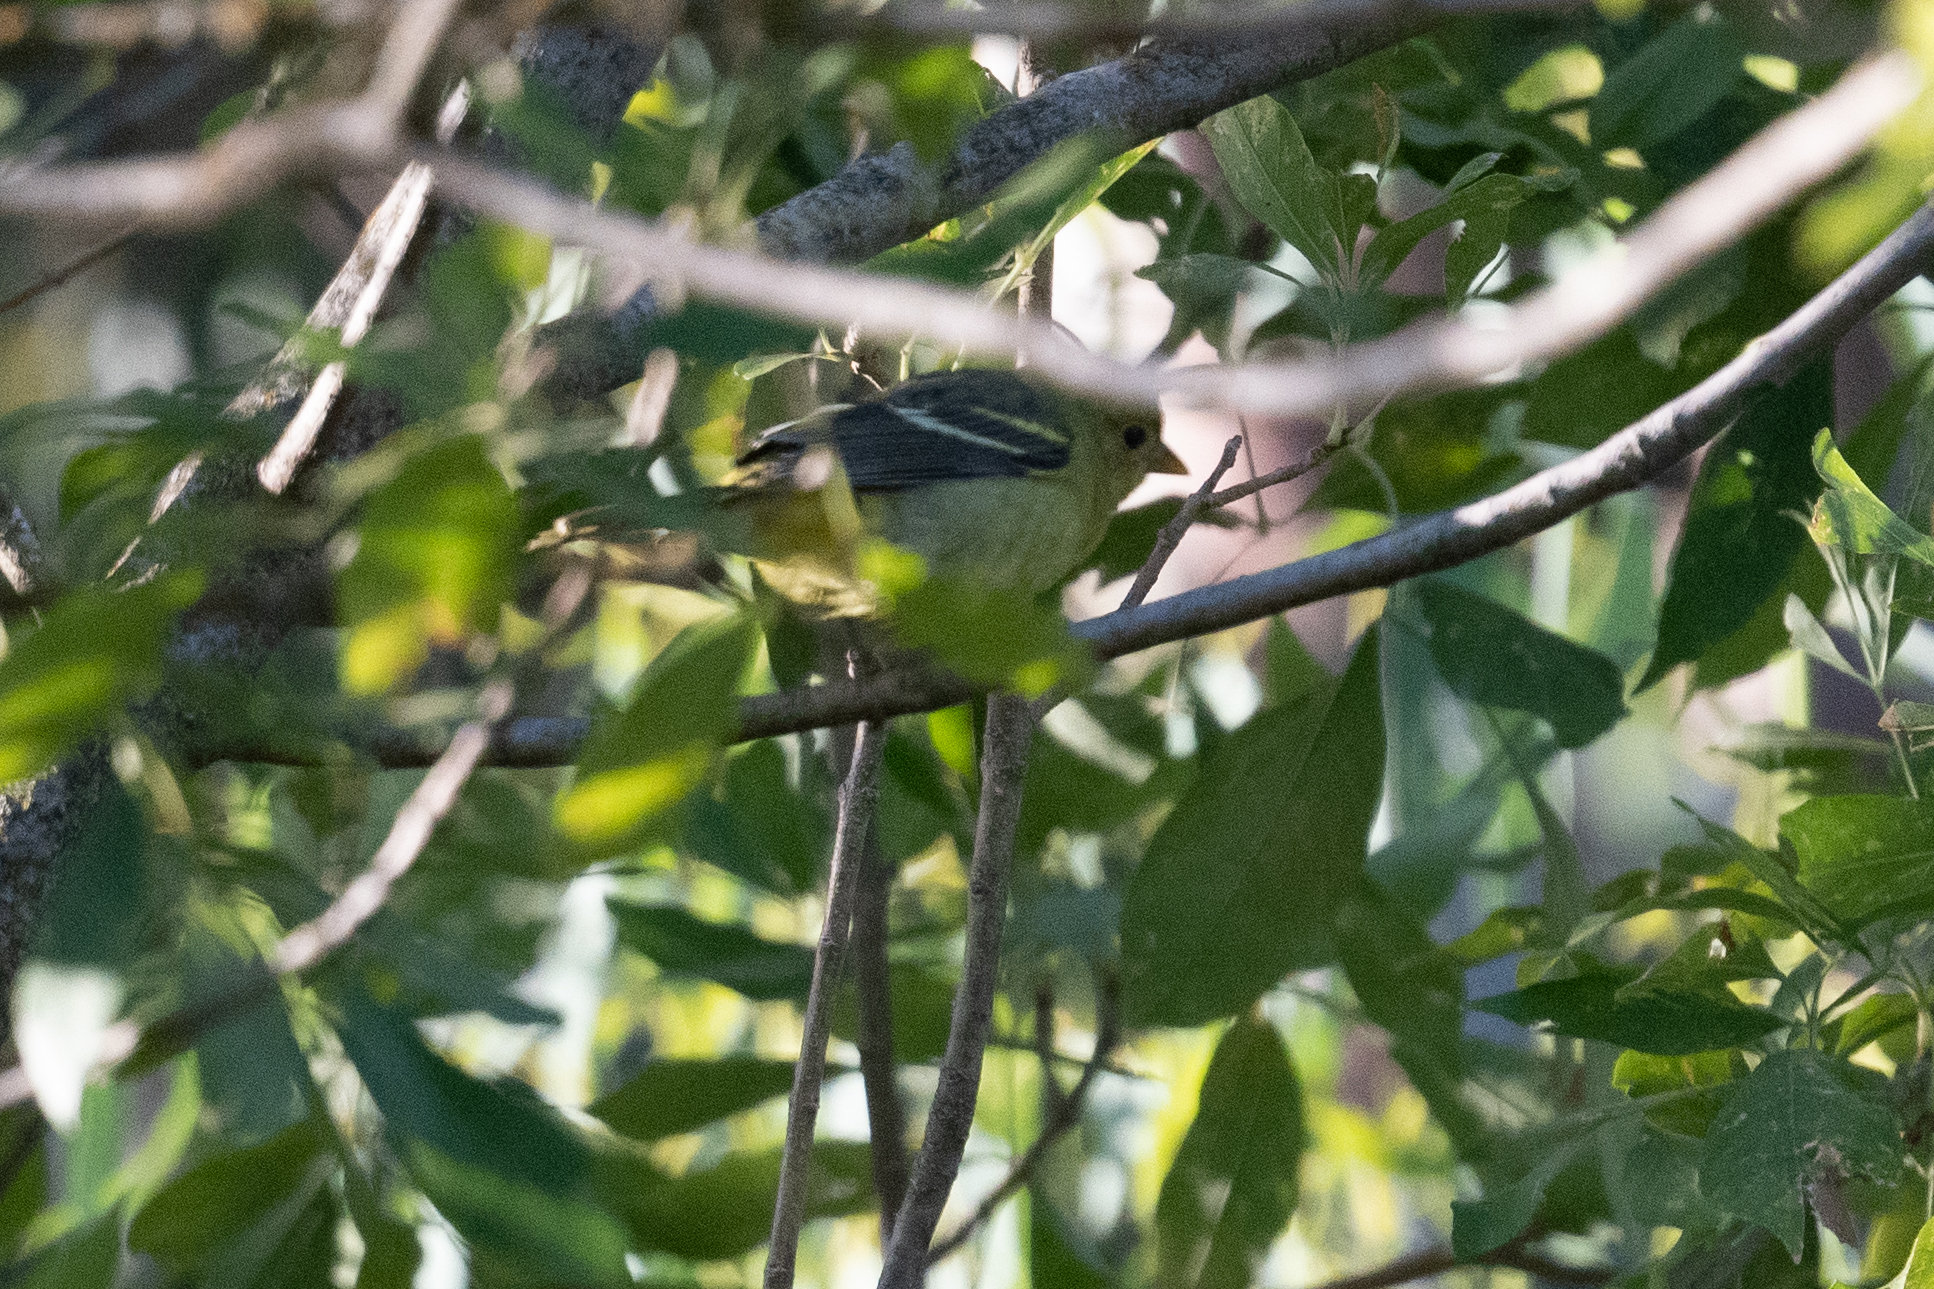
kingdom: Animalia
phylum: Chordata
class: Aves
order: Passeriformes
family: Cardinalidae
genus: Piranga
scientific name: Piranga ludoviciana
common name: Western tanager
